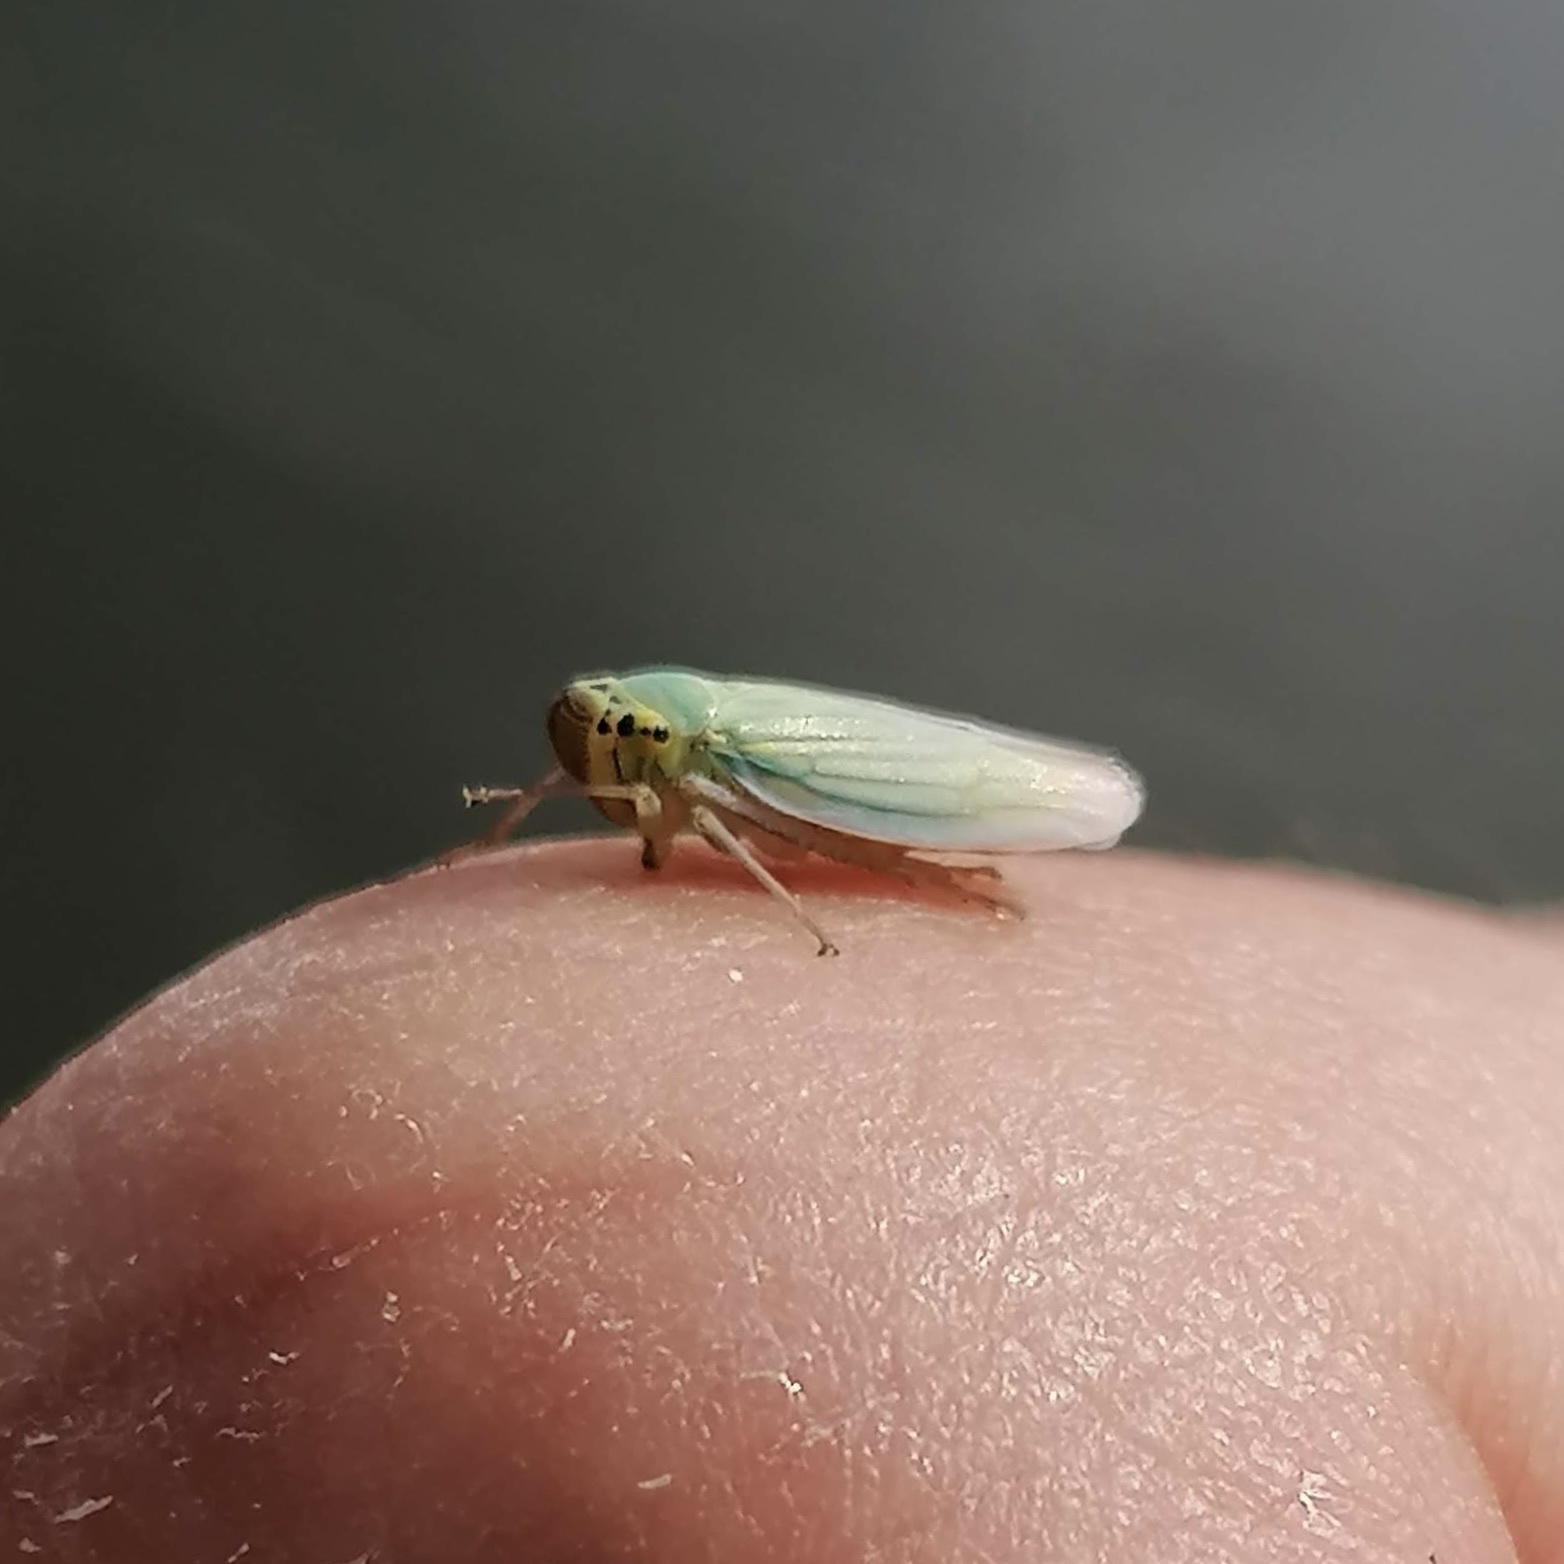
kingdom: Animalia
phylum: Arthropoda
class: Insecta
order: Hemiptera
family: Cicadellidae
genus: Cicadella
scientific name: Cicadella viridis
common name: Leafhopper
